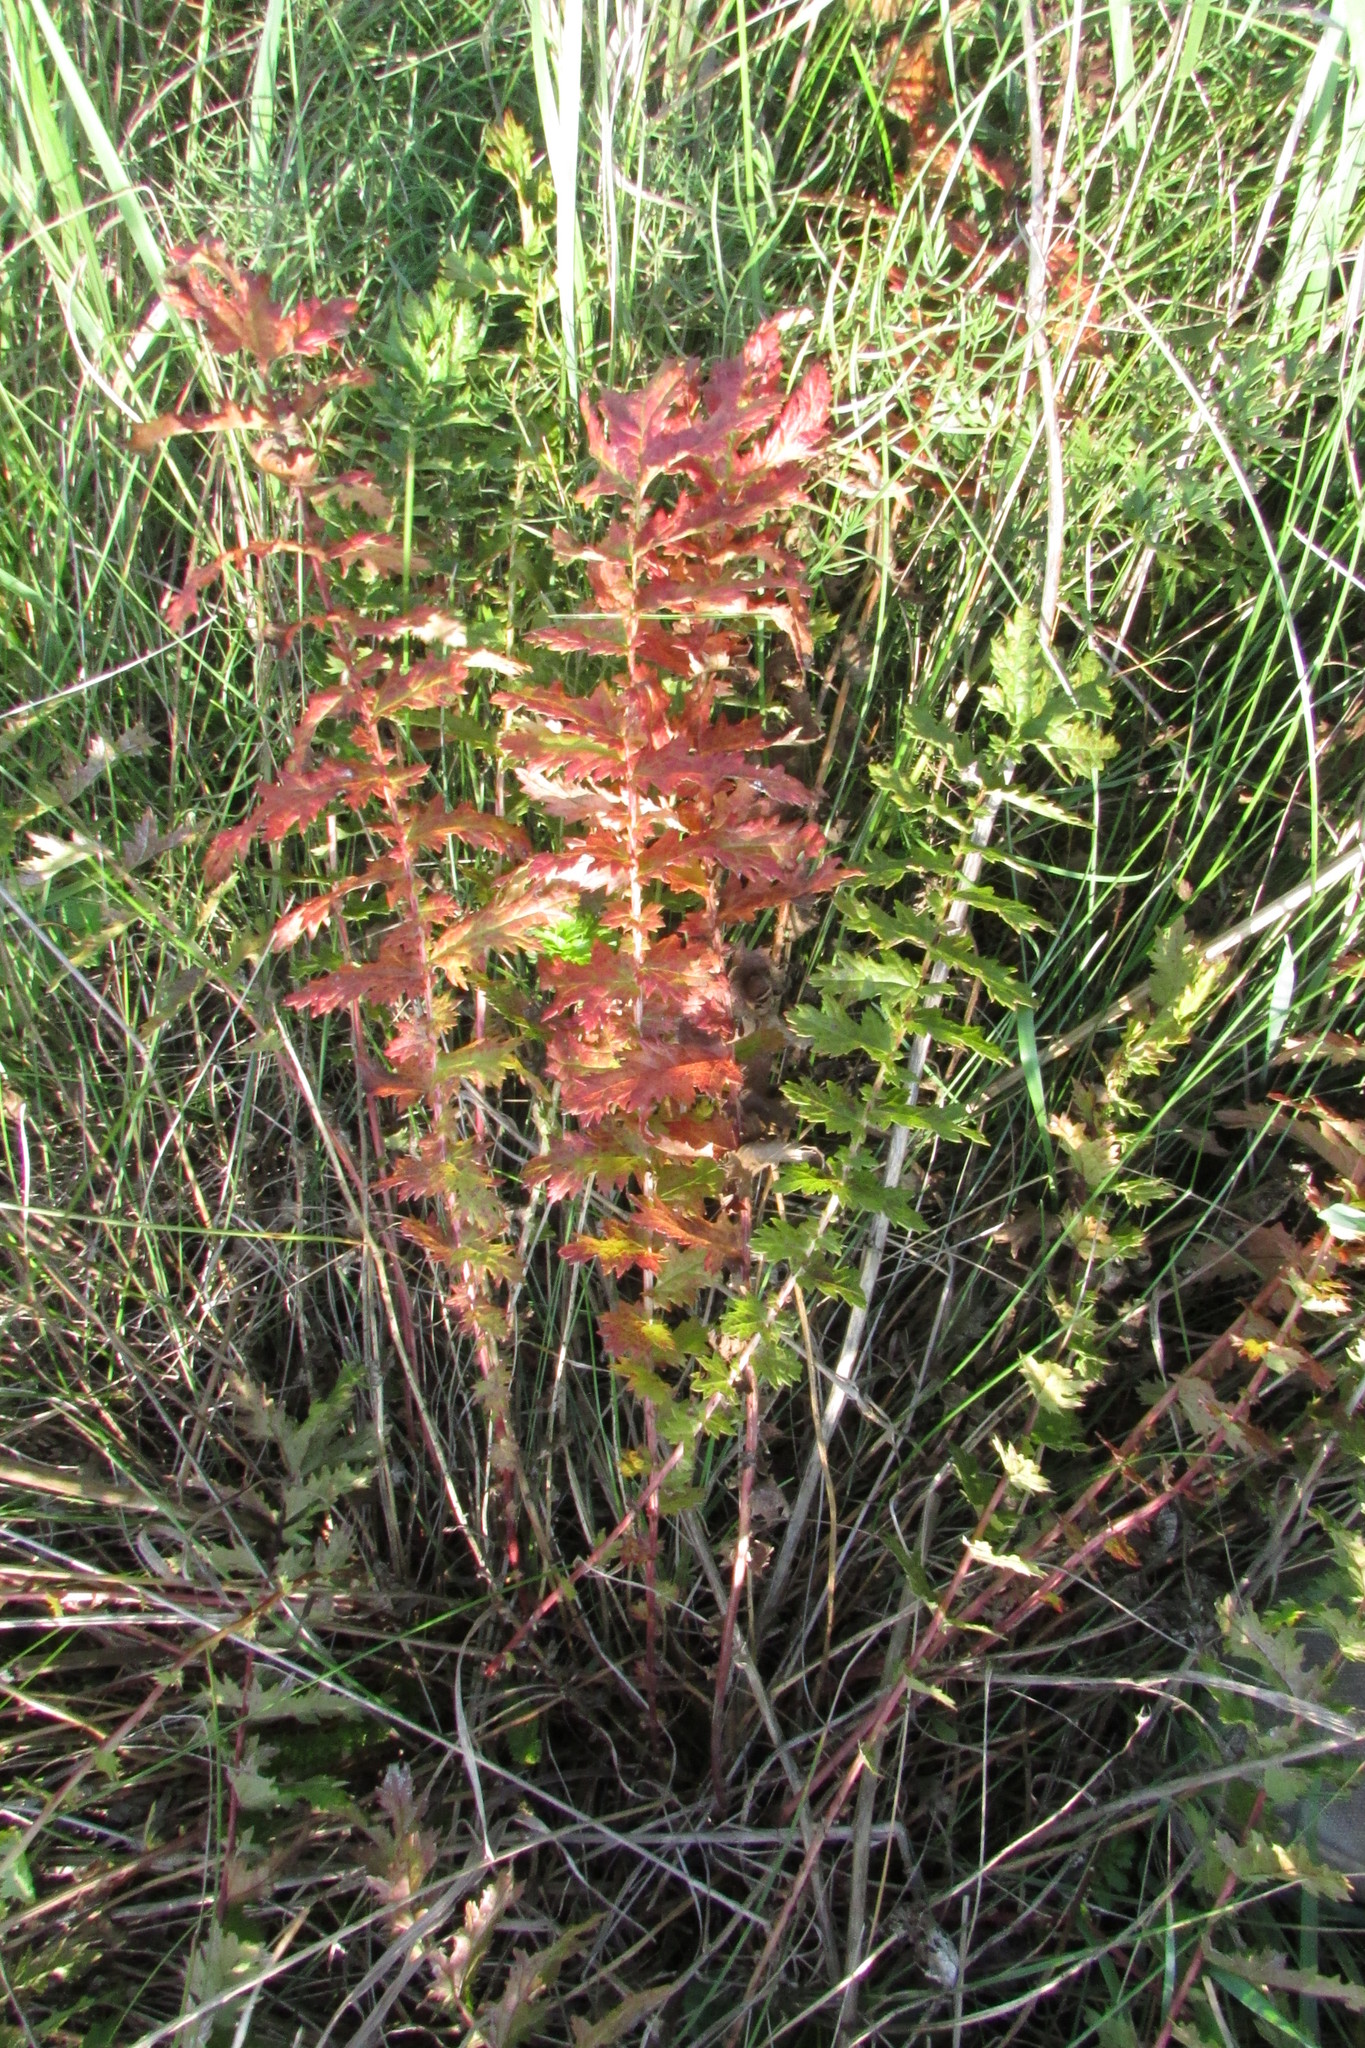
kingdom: Plantae
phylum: Tracheophyta
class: Magnoliopsida
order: Rosales
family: Rosaceae
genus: Filipendula
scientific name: Filipendula vulgaris
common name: Dropwort
